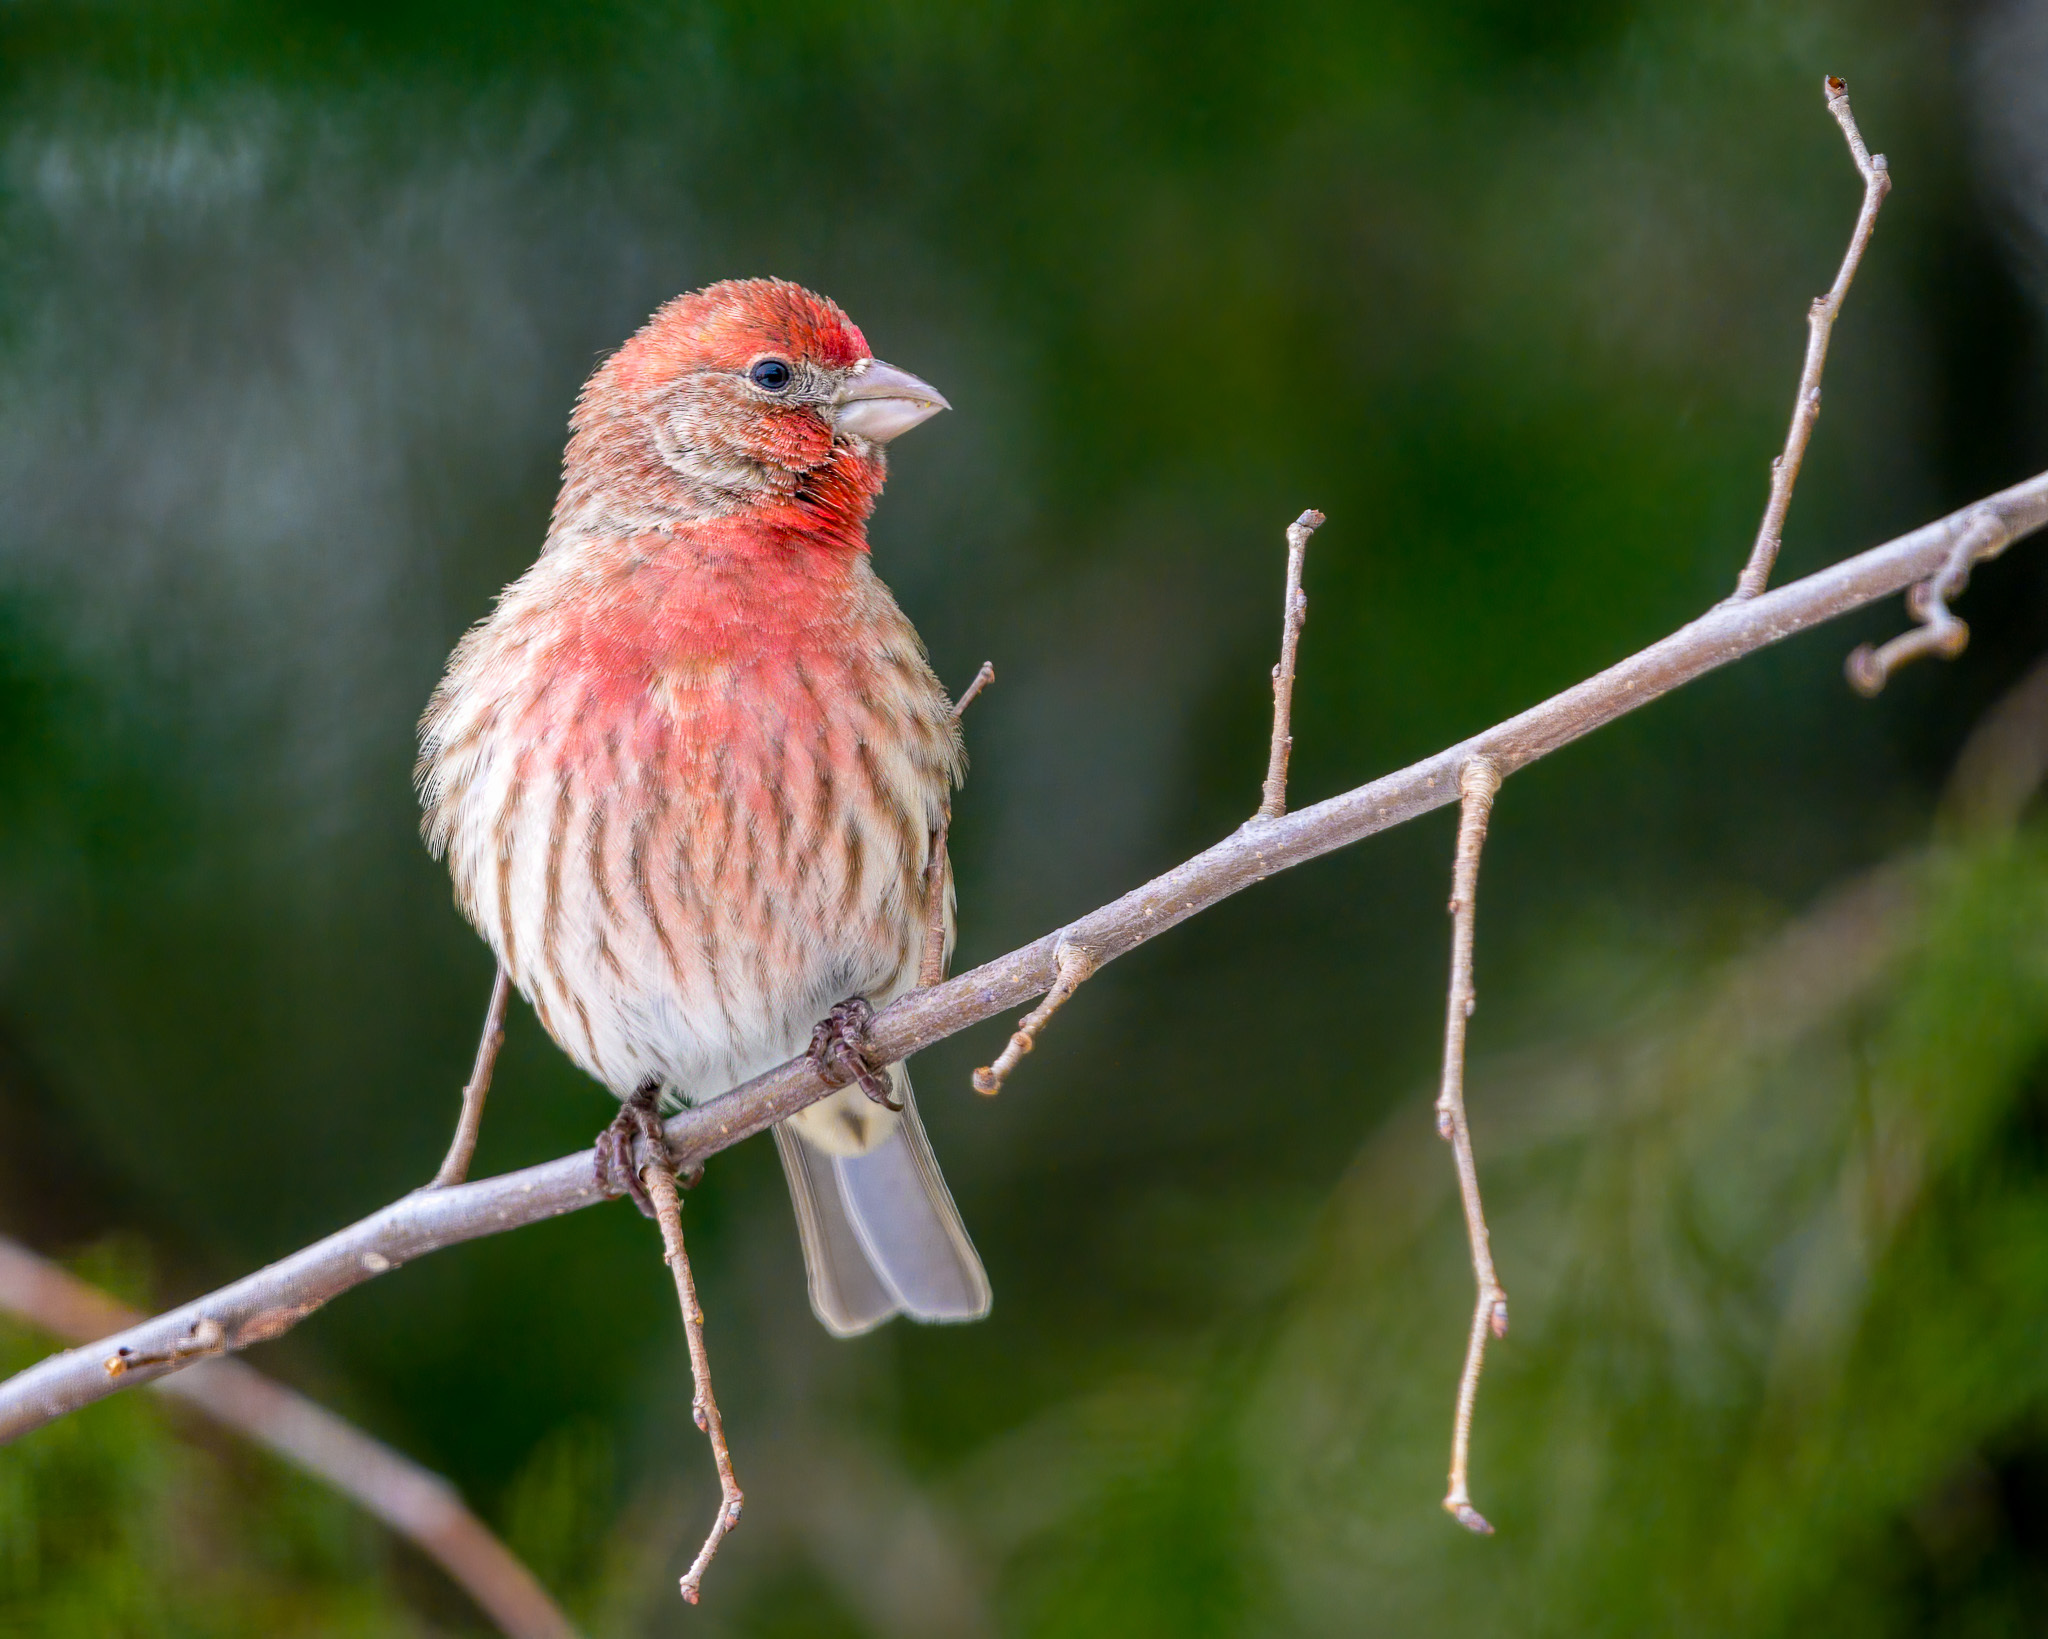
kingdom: Animalia
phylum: Chordata
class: Aves
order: Passeriformes
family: Fringillidae
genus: Haemorhous
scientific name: Haemorhous mexicanus
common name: House finch
